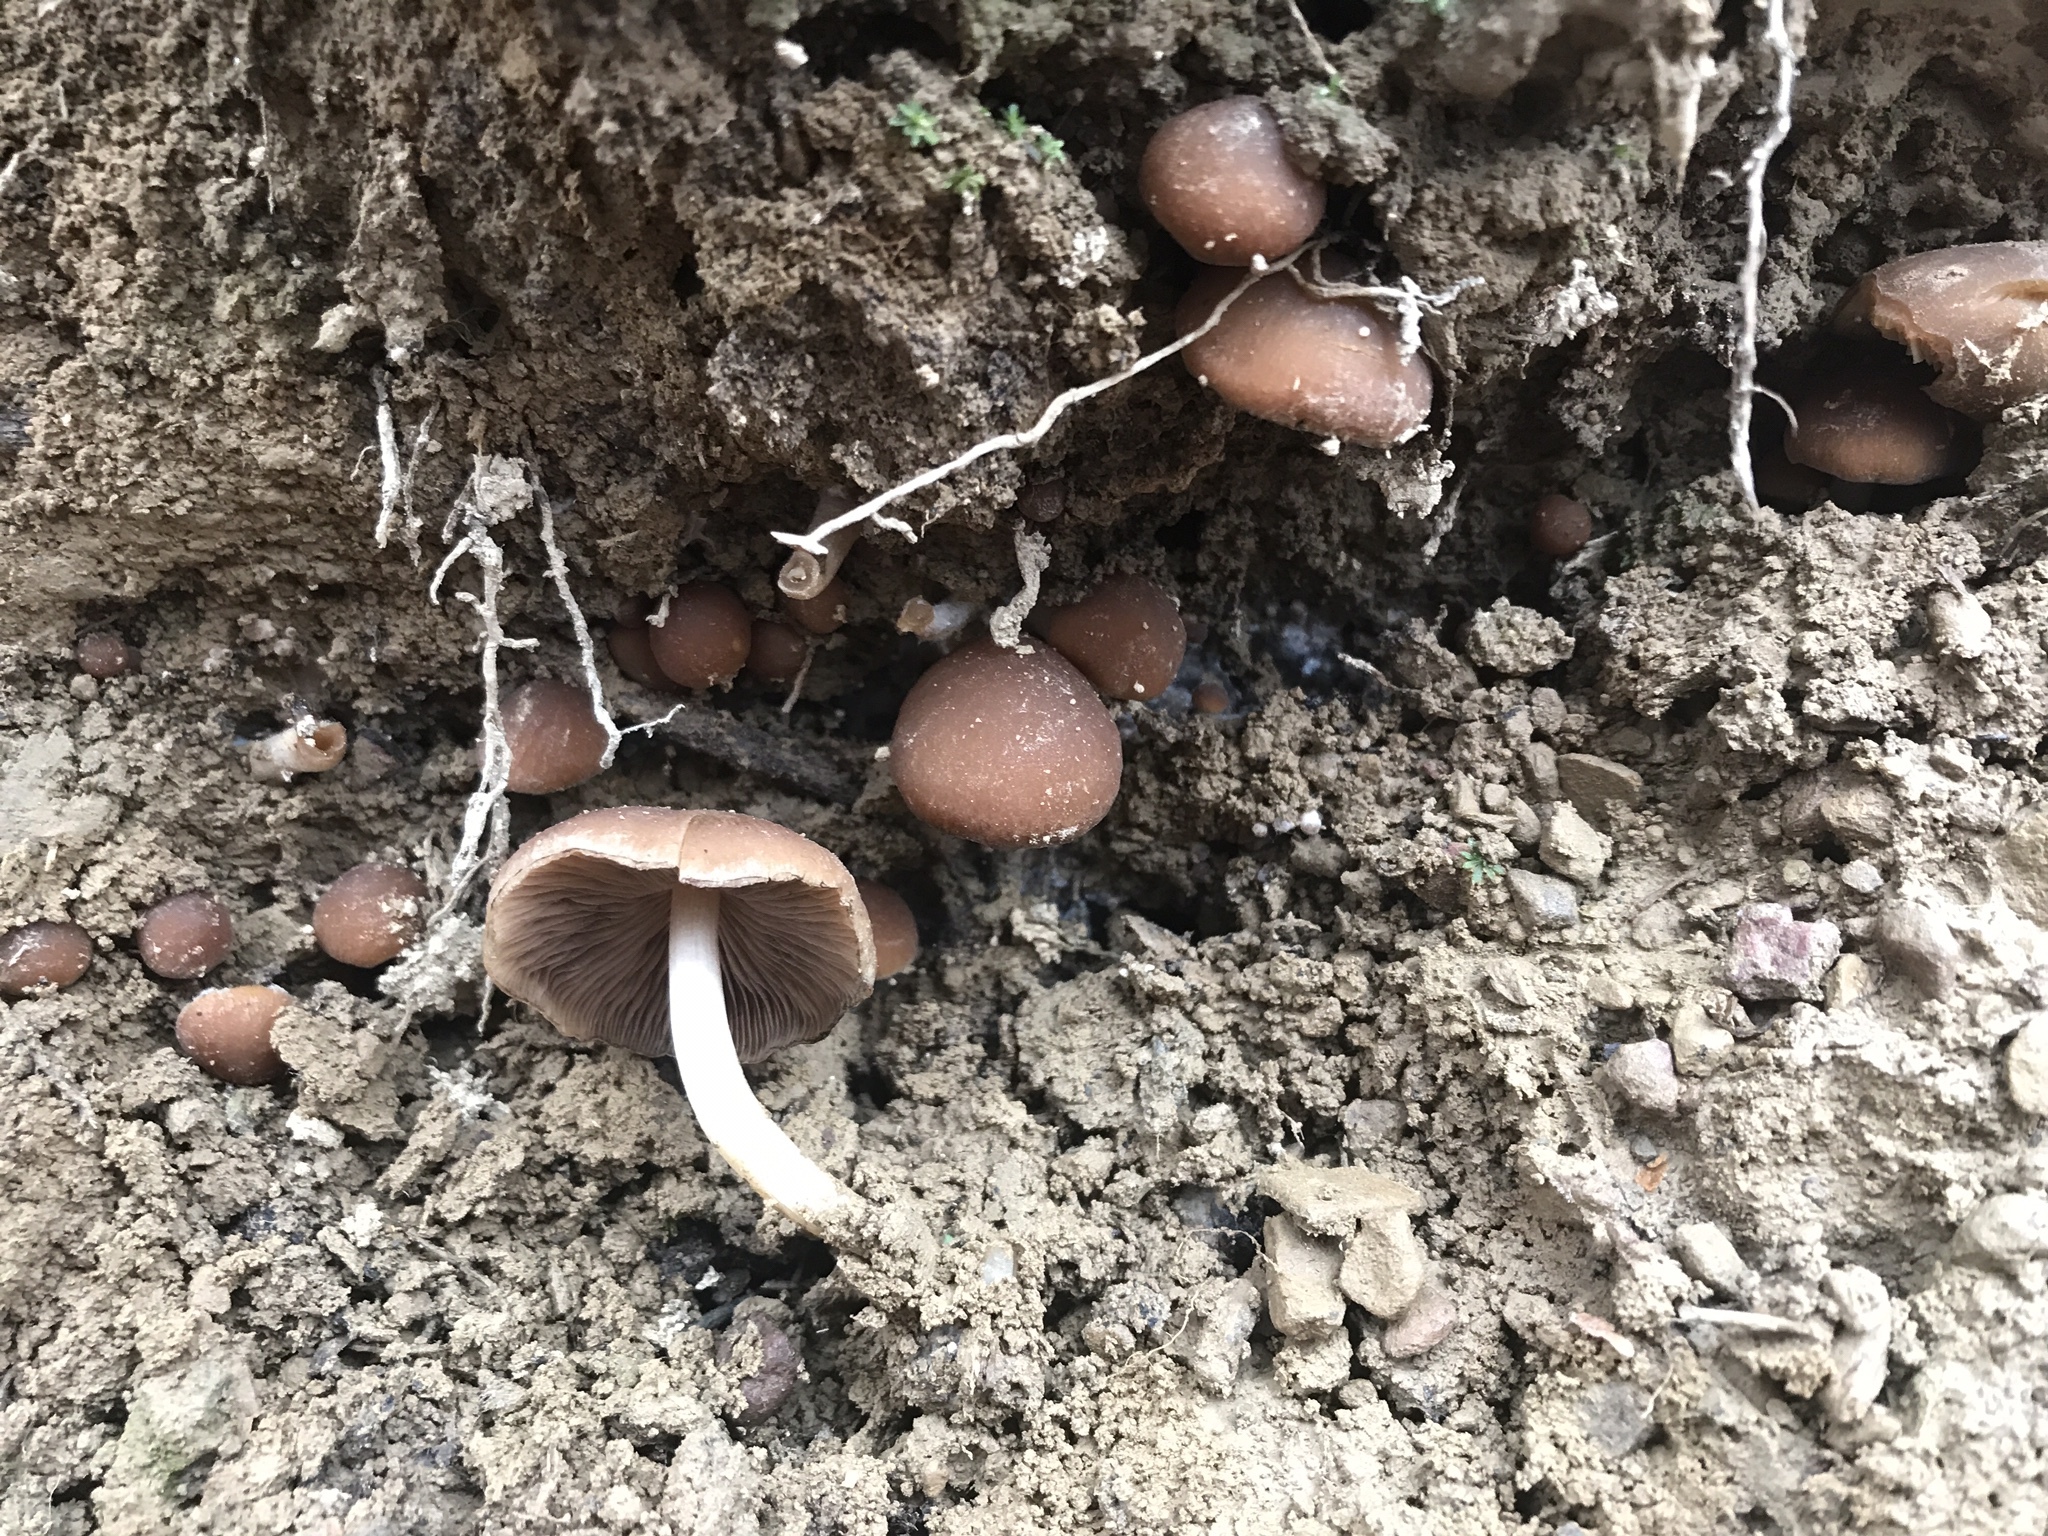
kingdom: Fungi
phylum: Basidiomycota
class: Agaricomycetes
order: Agaricales
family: Psathyrellaceae
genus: Psathyrella
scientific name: Psathyrella piluliformis
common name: Common stump brittlestem
